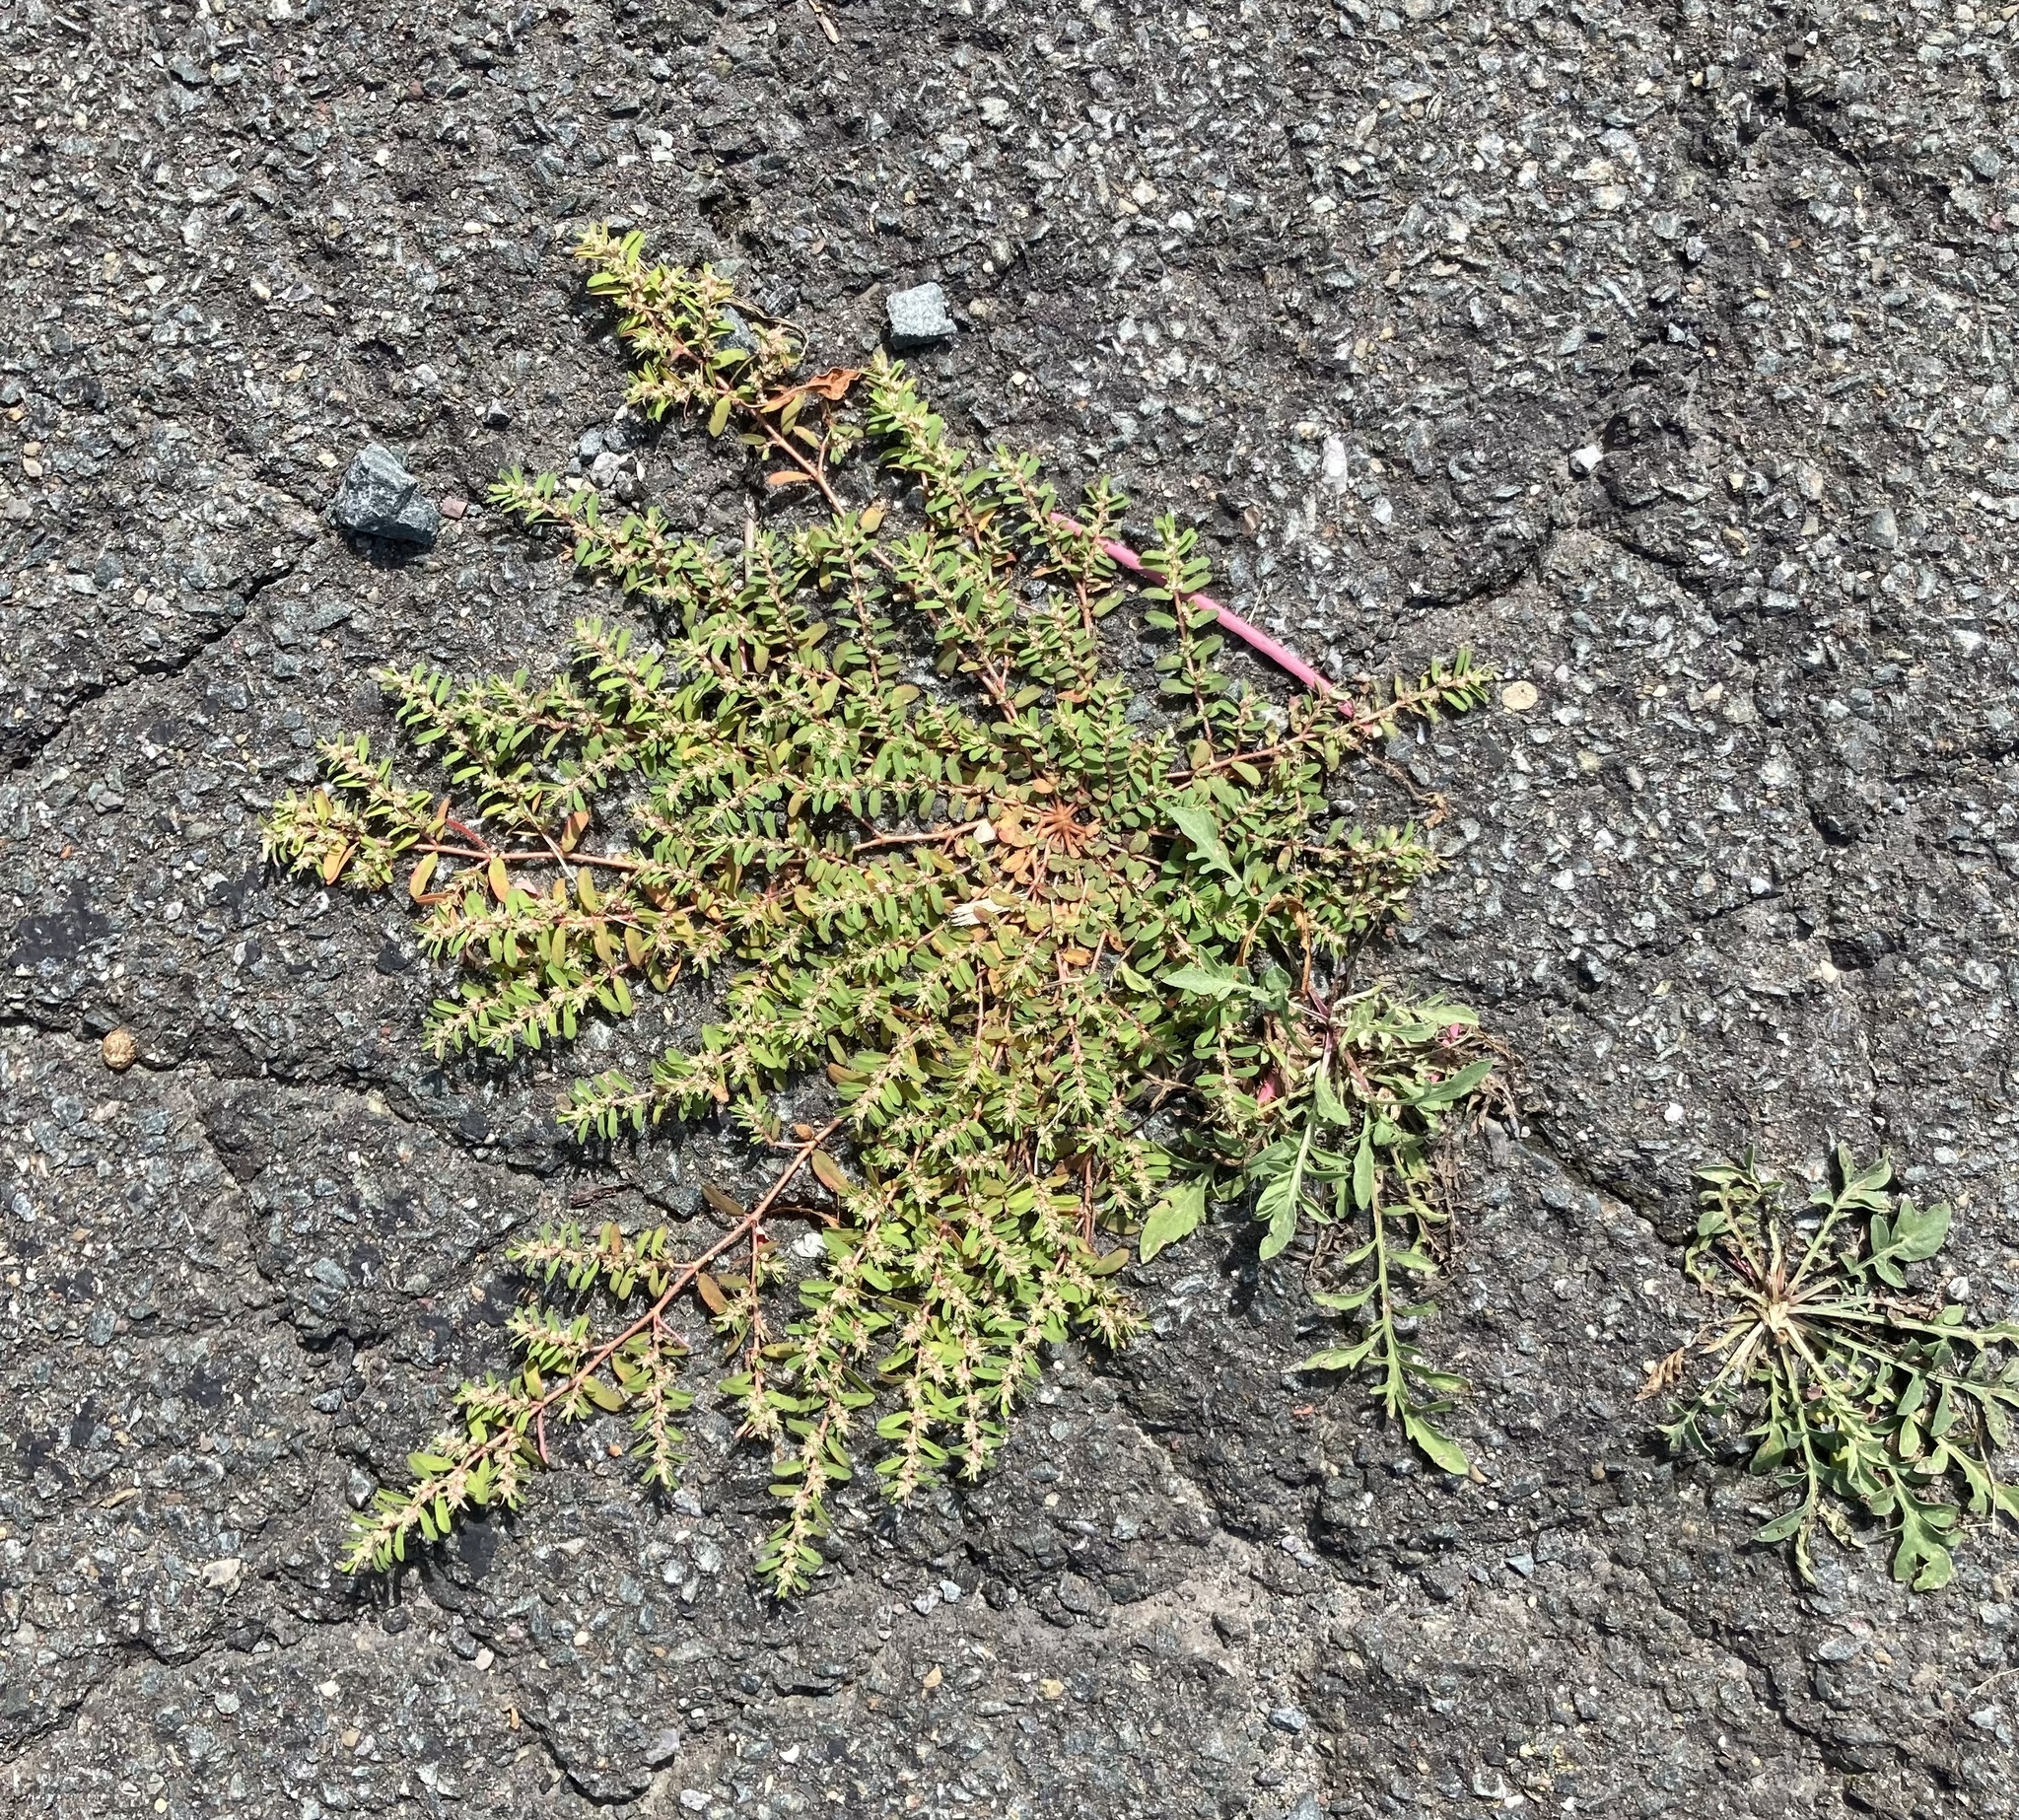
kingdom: Plantae
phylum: Tracheophyta
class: Magnoliopsida
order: Malpighiales
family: Euphorbiaceae
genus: Euphorbia
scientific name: Euphorbia maculata
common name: Spotted spurge
